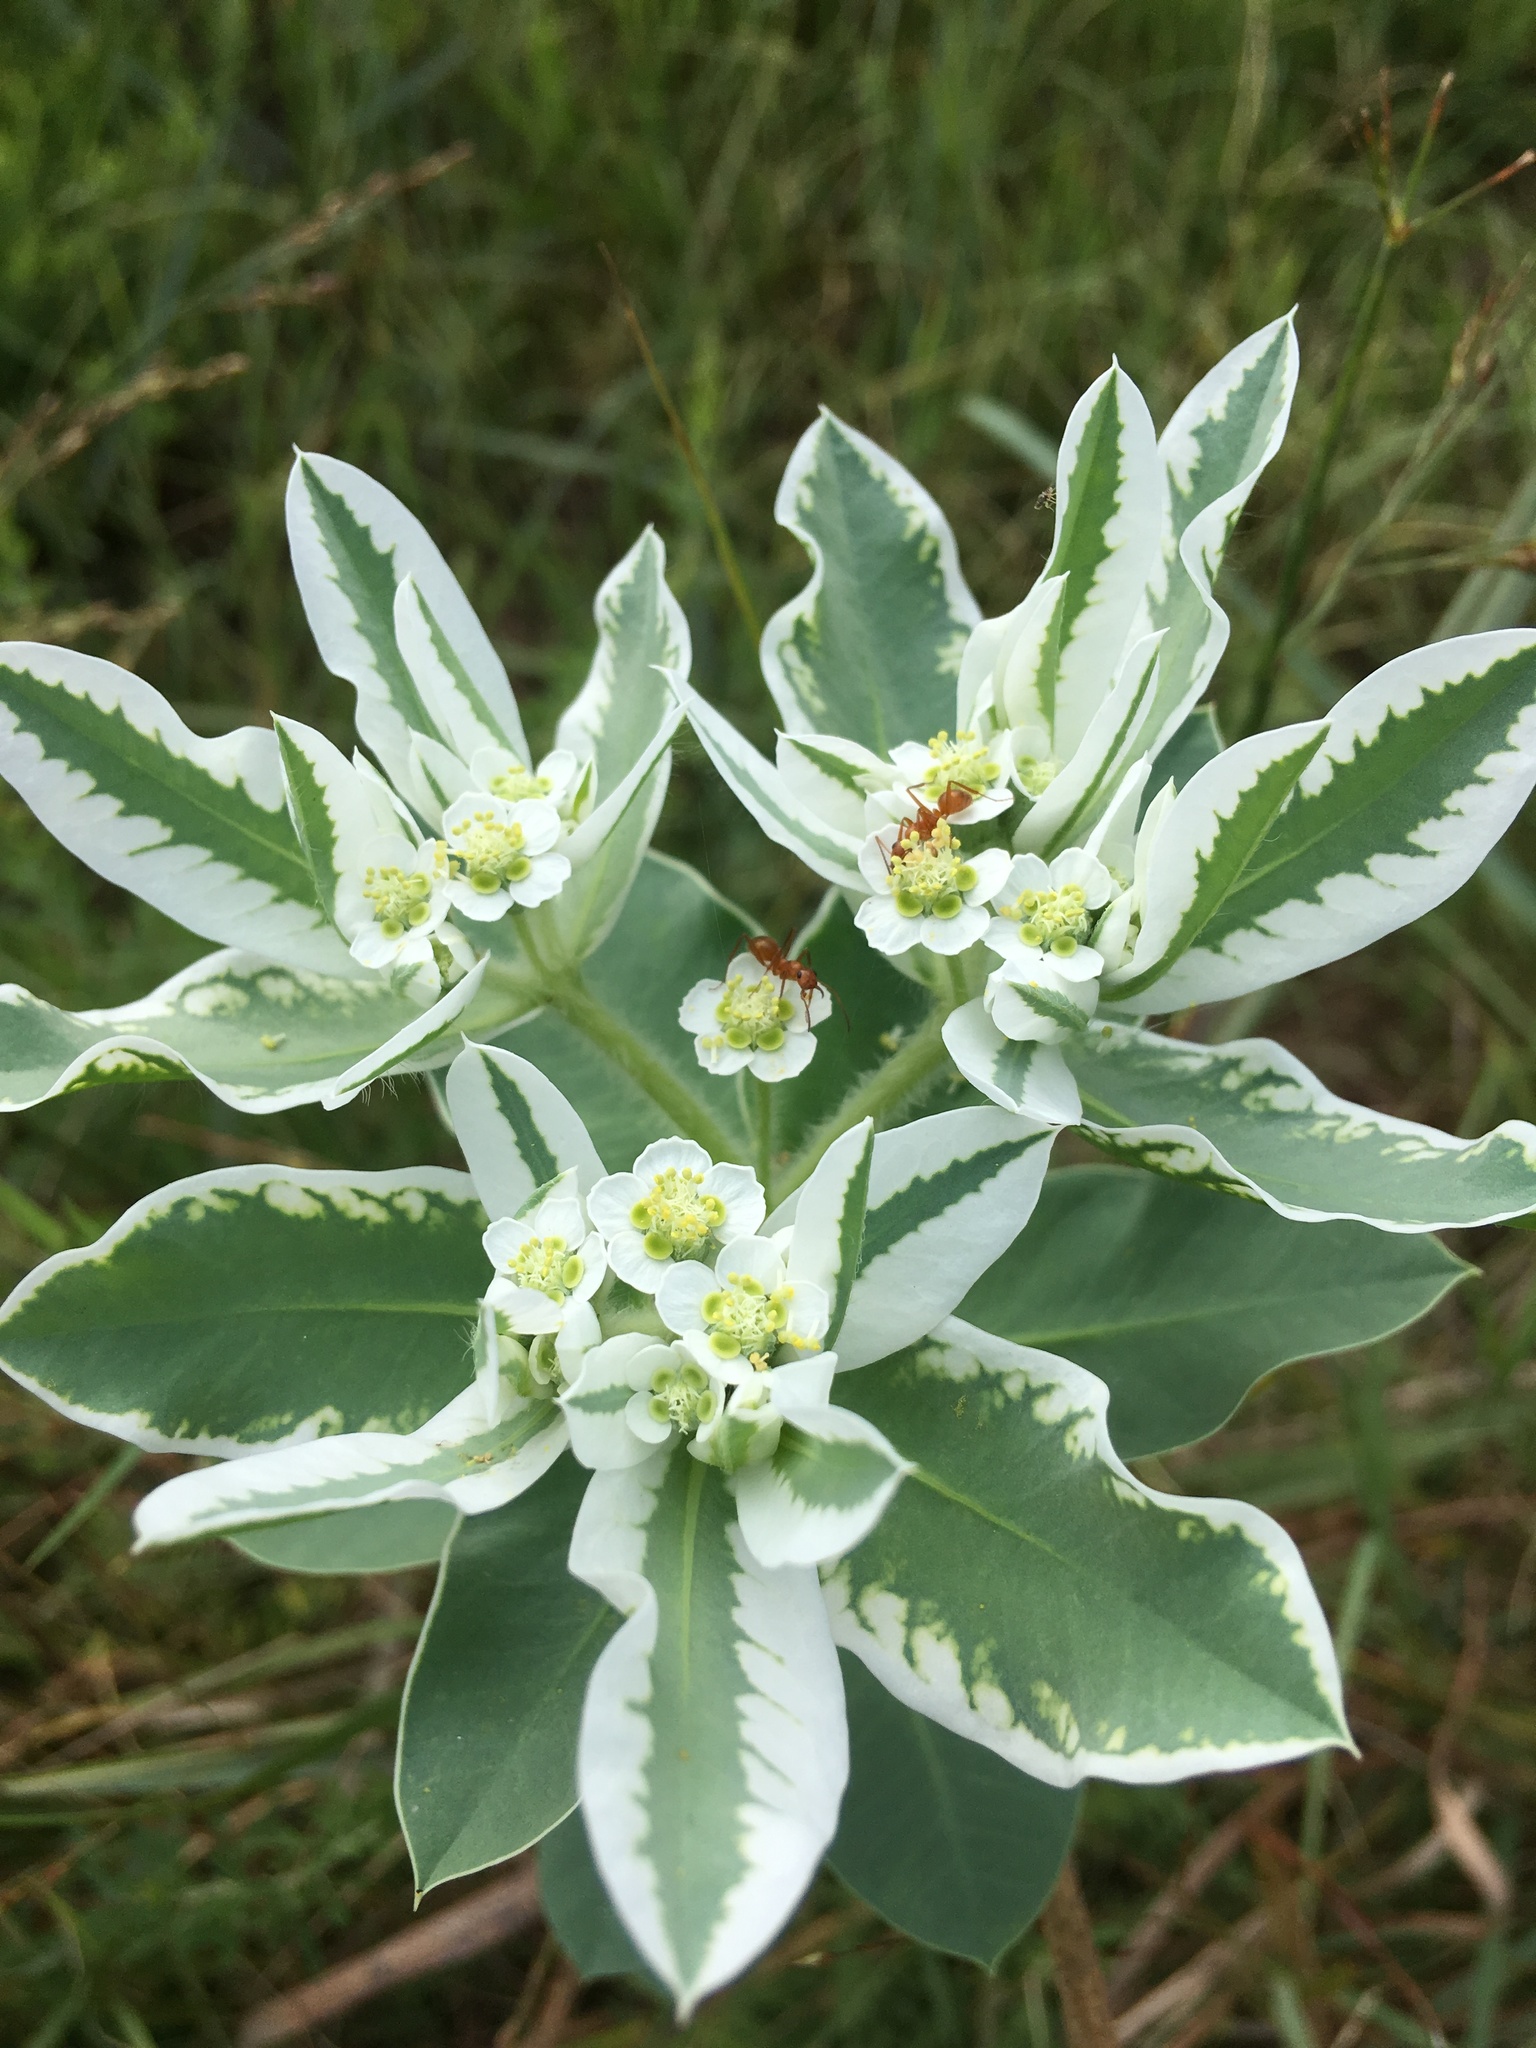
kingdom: Plantae
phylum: Tracheophyta
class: Magnoliopsida
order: Malpighiales
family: Euphorbiaceae
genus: Euphorbia
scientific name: Euphorbia marginata
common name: Ghostweed
